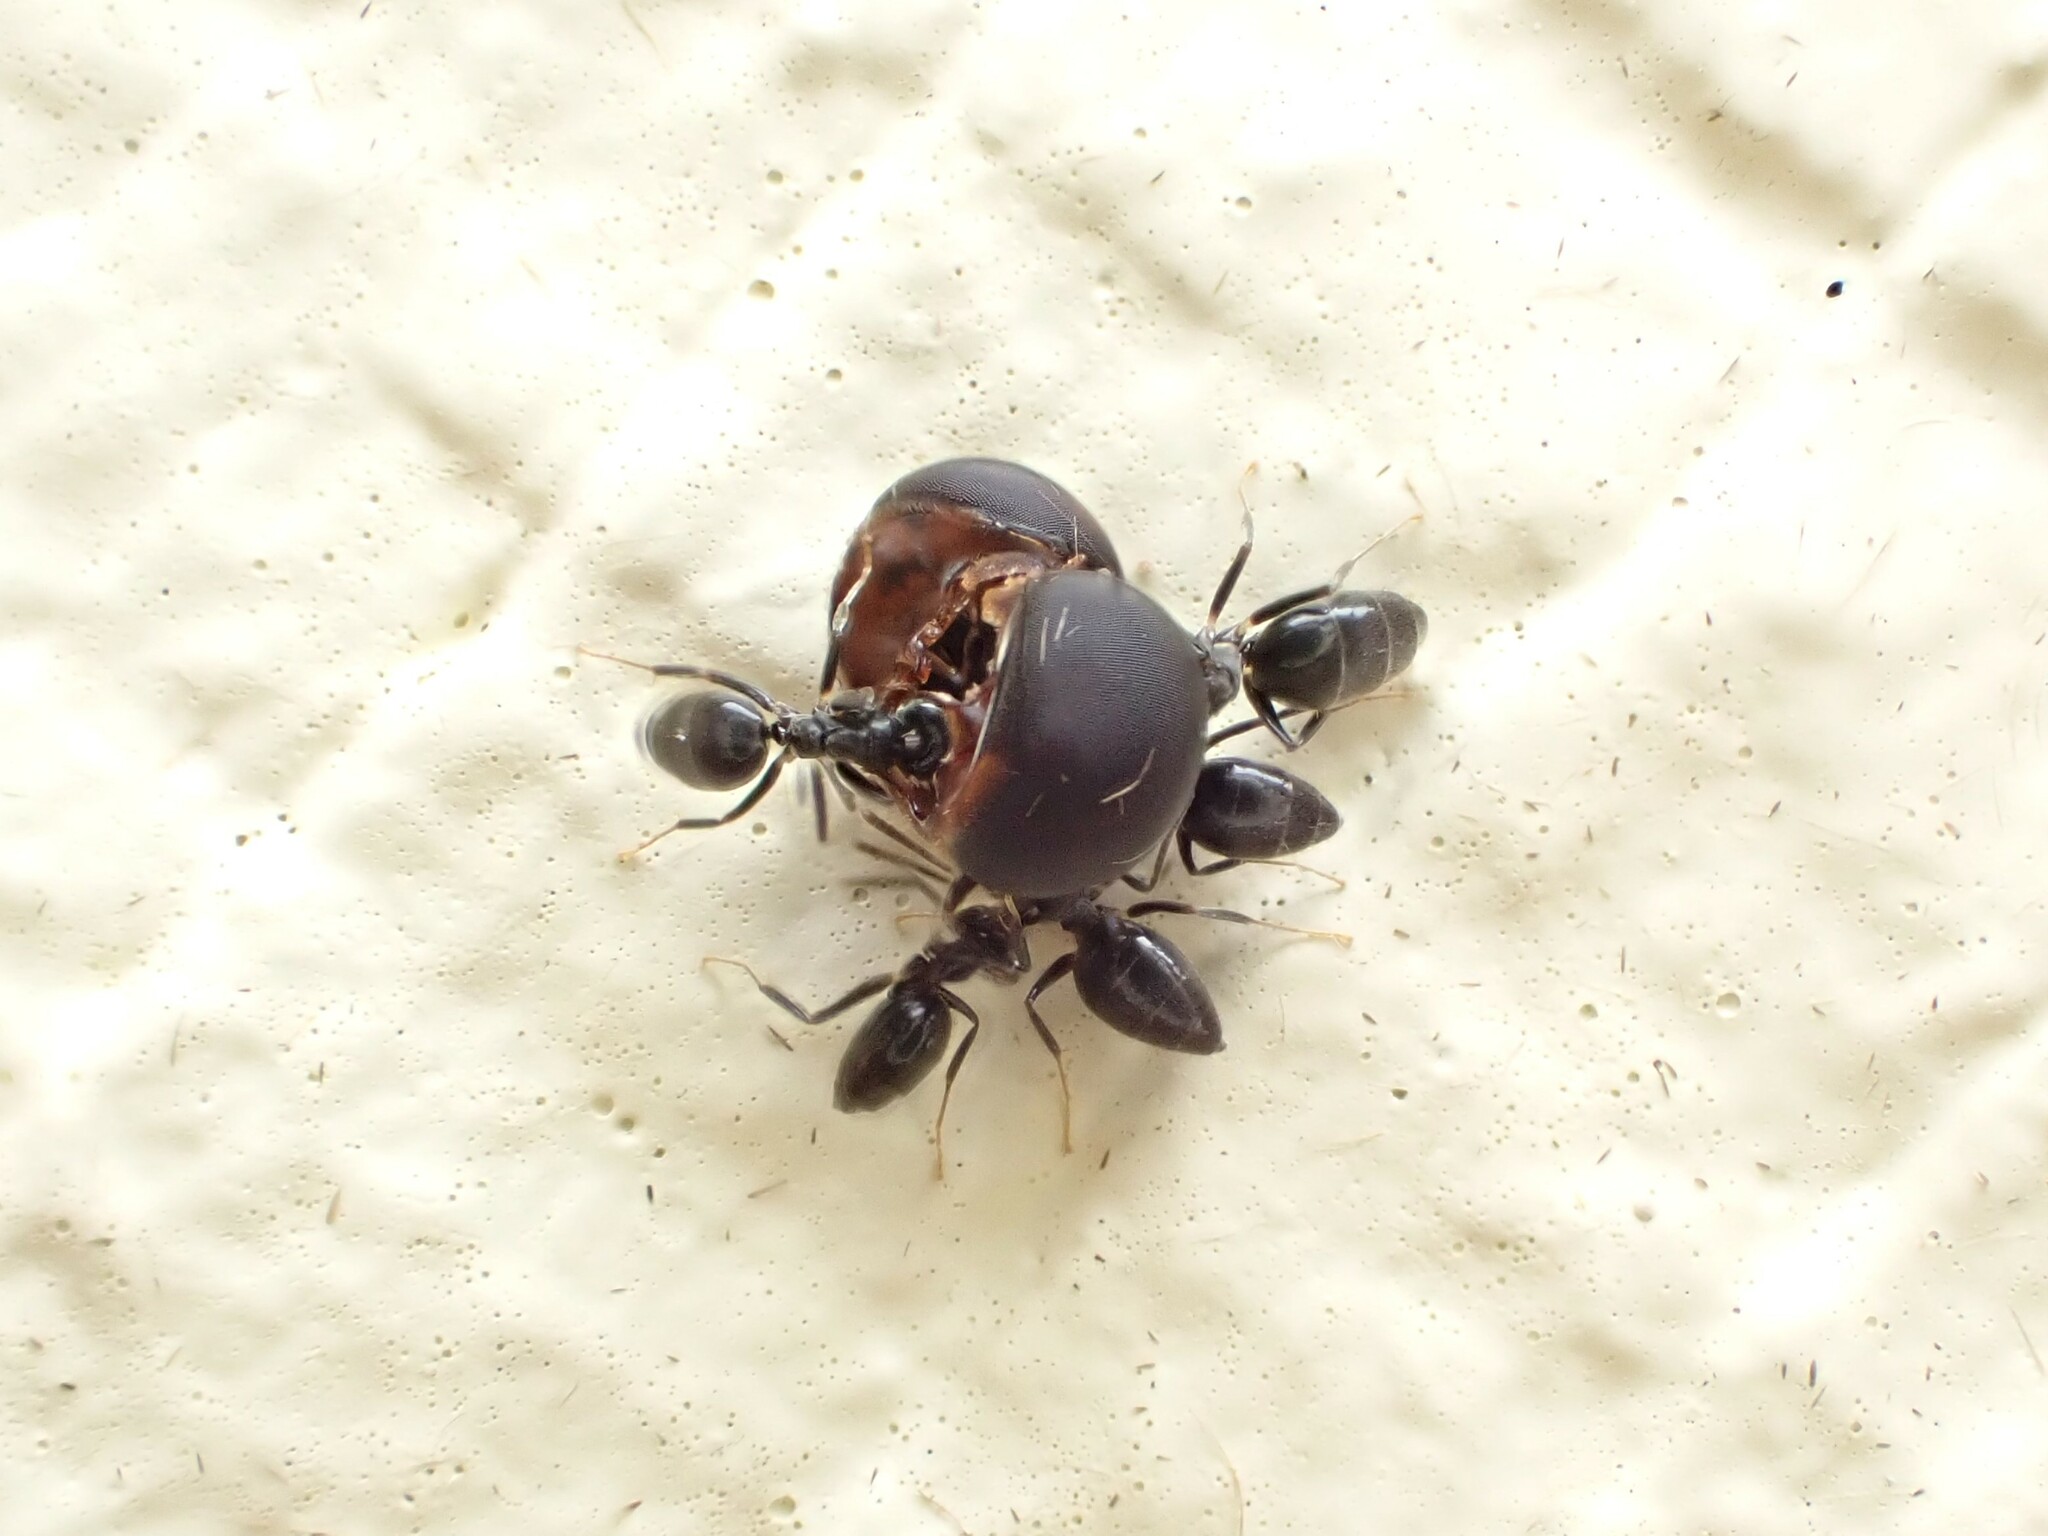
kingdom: Animalia
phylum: Arthropoda
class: Insecta
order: Hymenoptera
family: Formicidae
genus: Technomyrmex
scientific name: Technomyrmex jocosus
